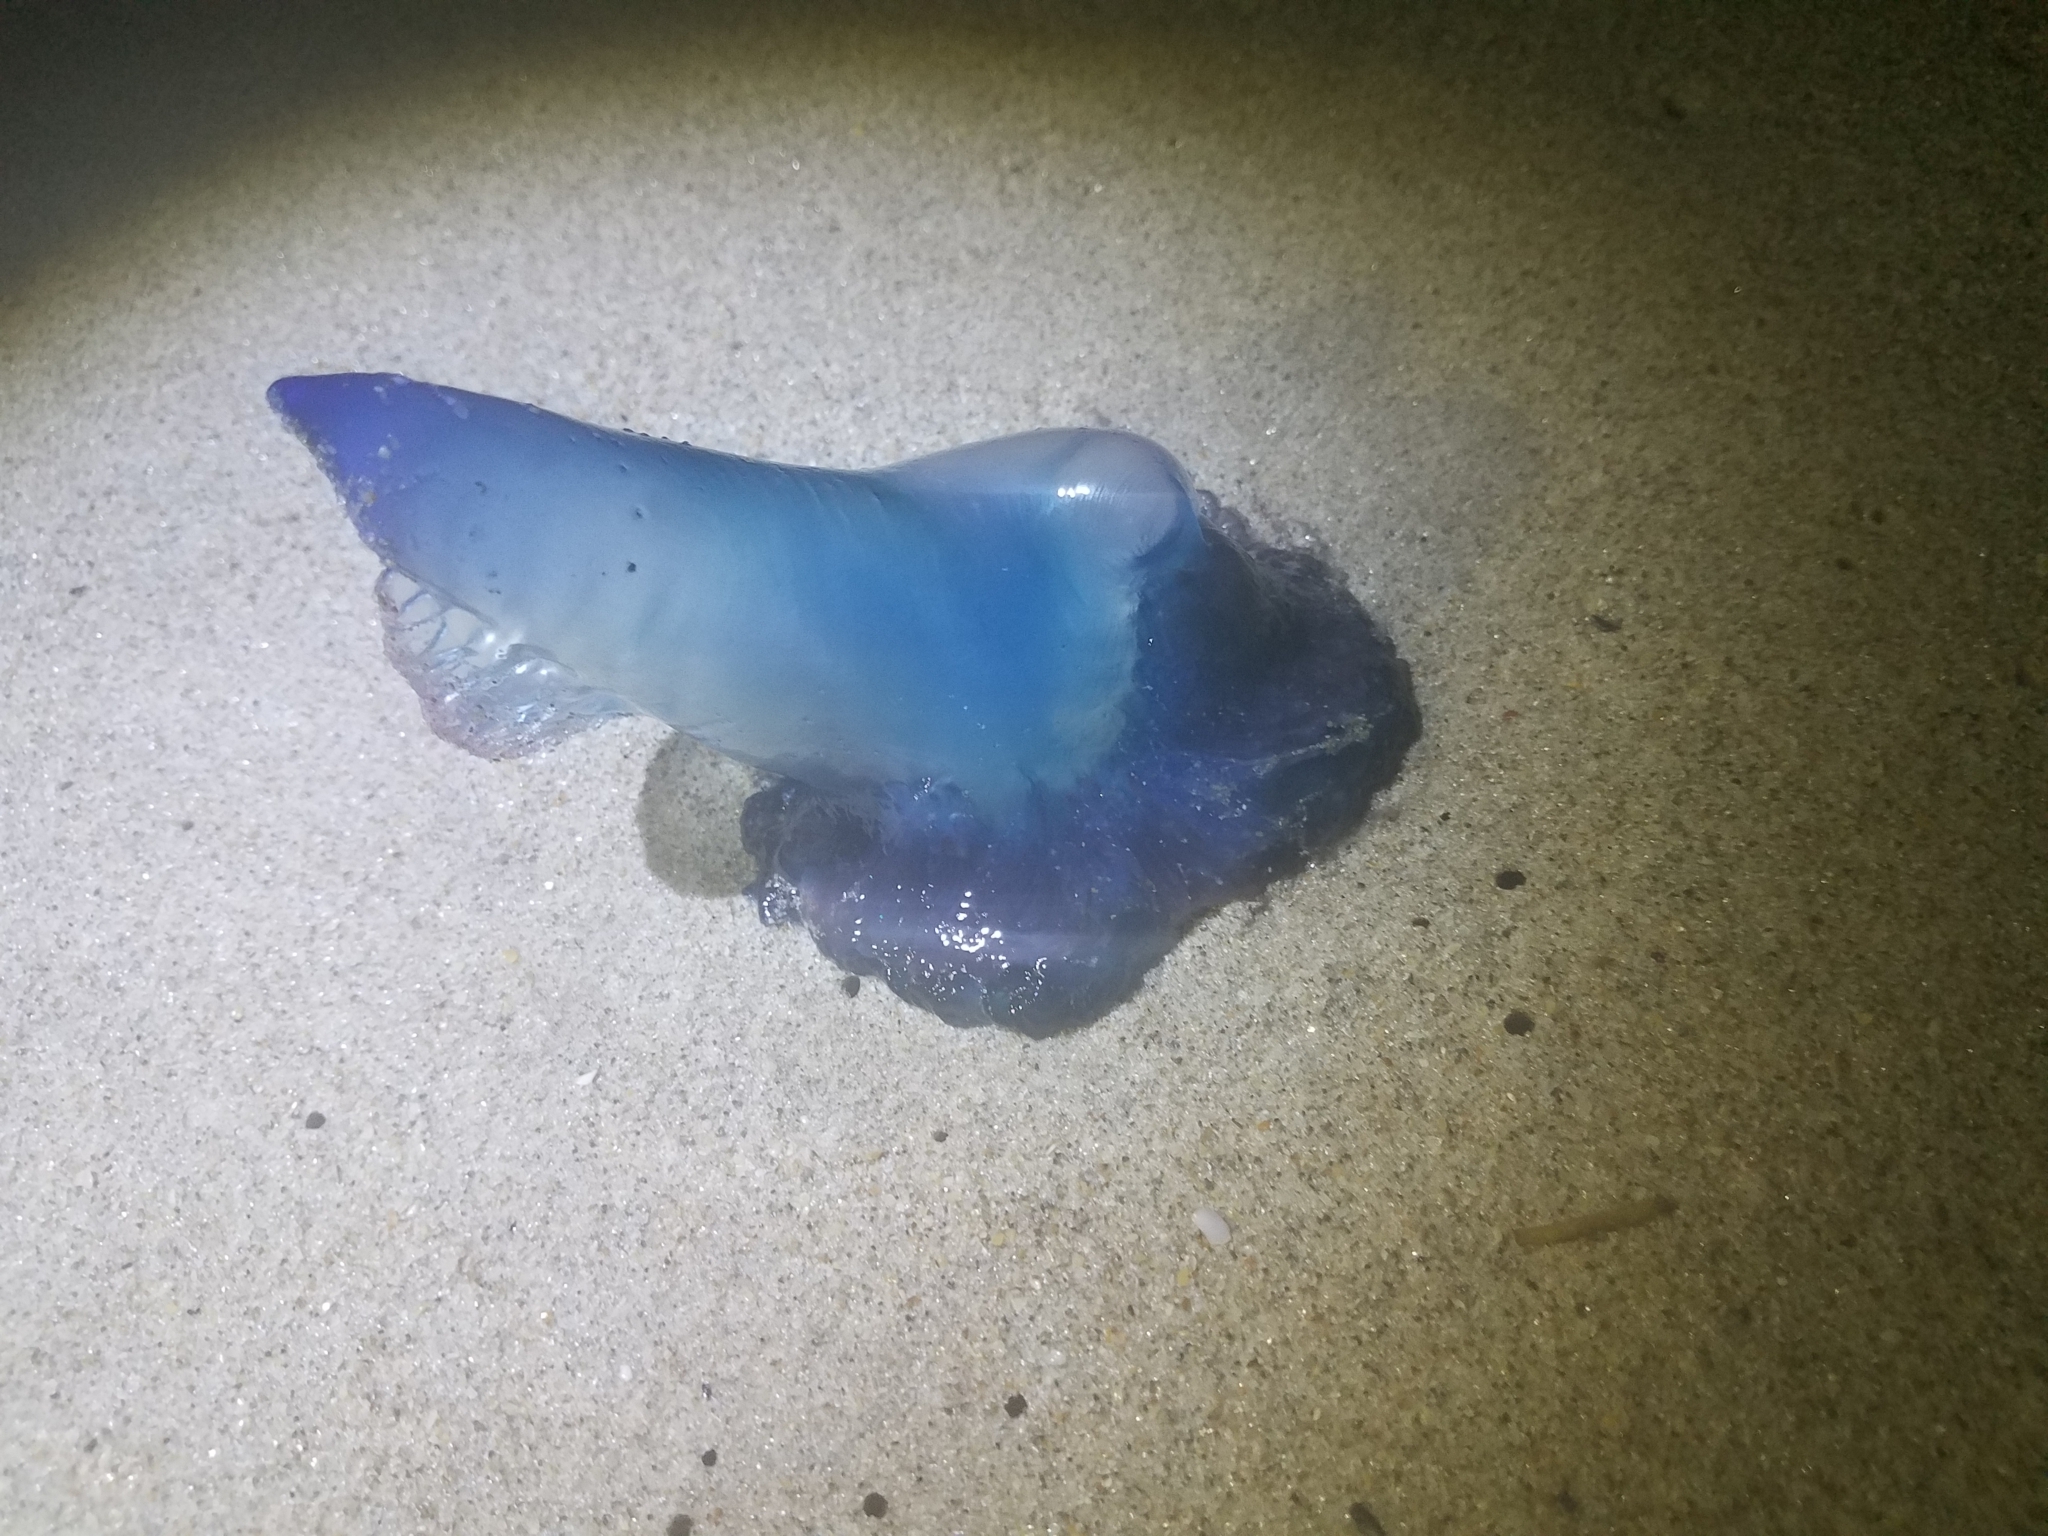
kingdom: Animalia
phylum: Cnidaria
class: Hydrozoa
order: Siphonophorae
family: Physaliidae
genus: Physalia
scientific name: Physalia physalis
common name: Portuguese man-of-war
